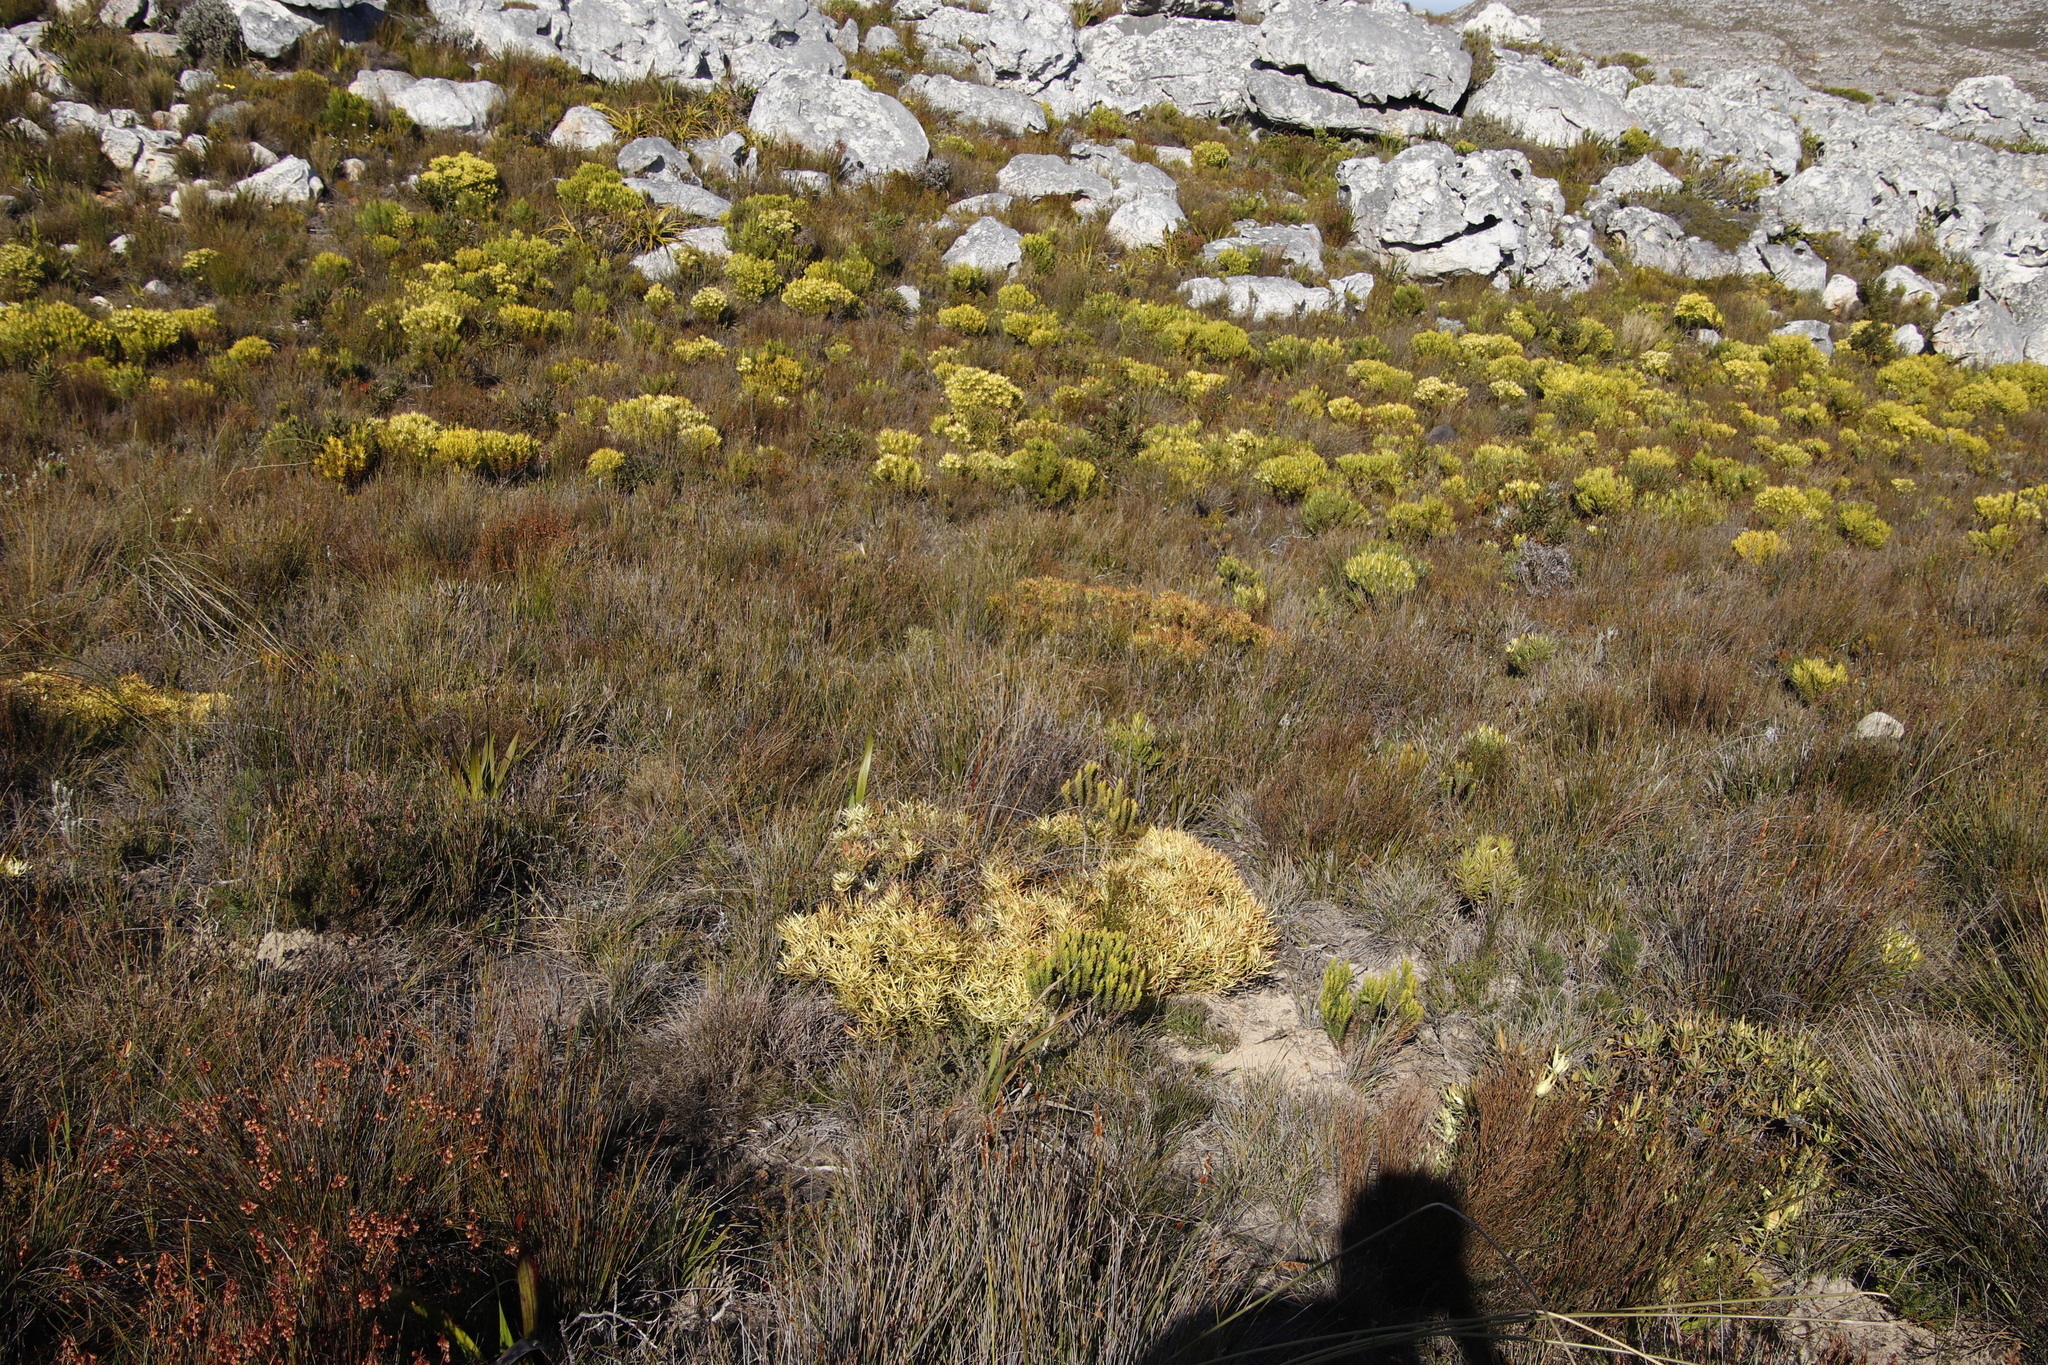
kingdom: Plantae
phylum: Tracheophyta
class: Magnoliopsida
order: Proteales
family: Proteaceae
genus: Leucadendron
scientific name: Leucadendron xanthoconus
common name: Sickle-leaf conebush
